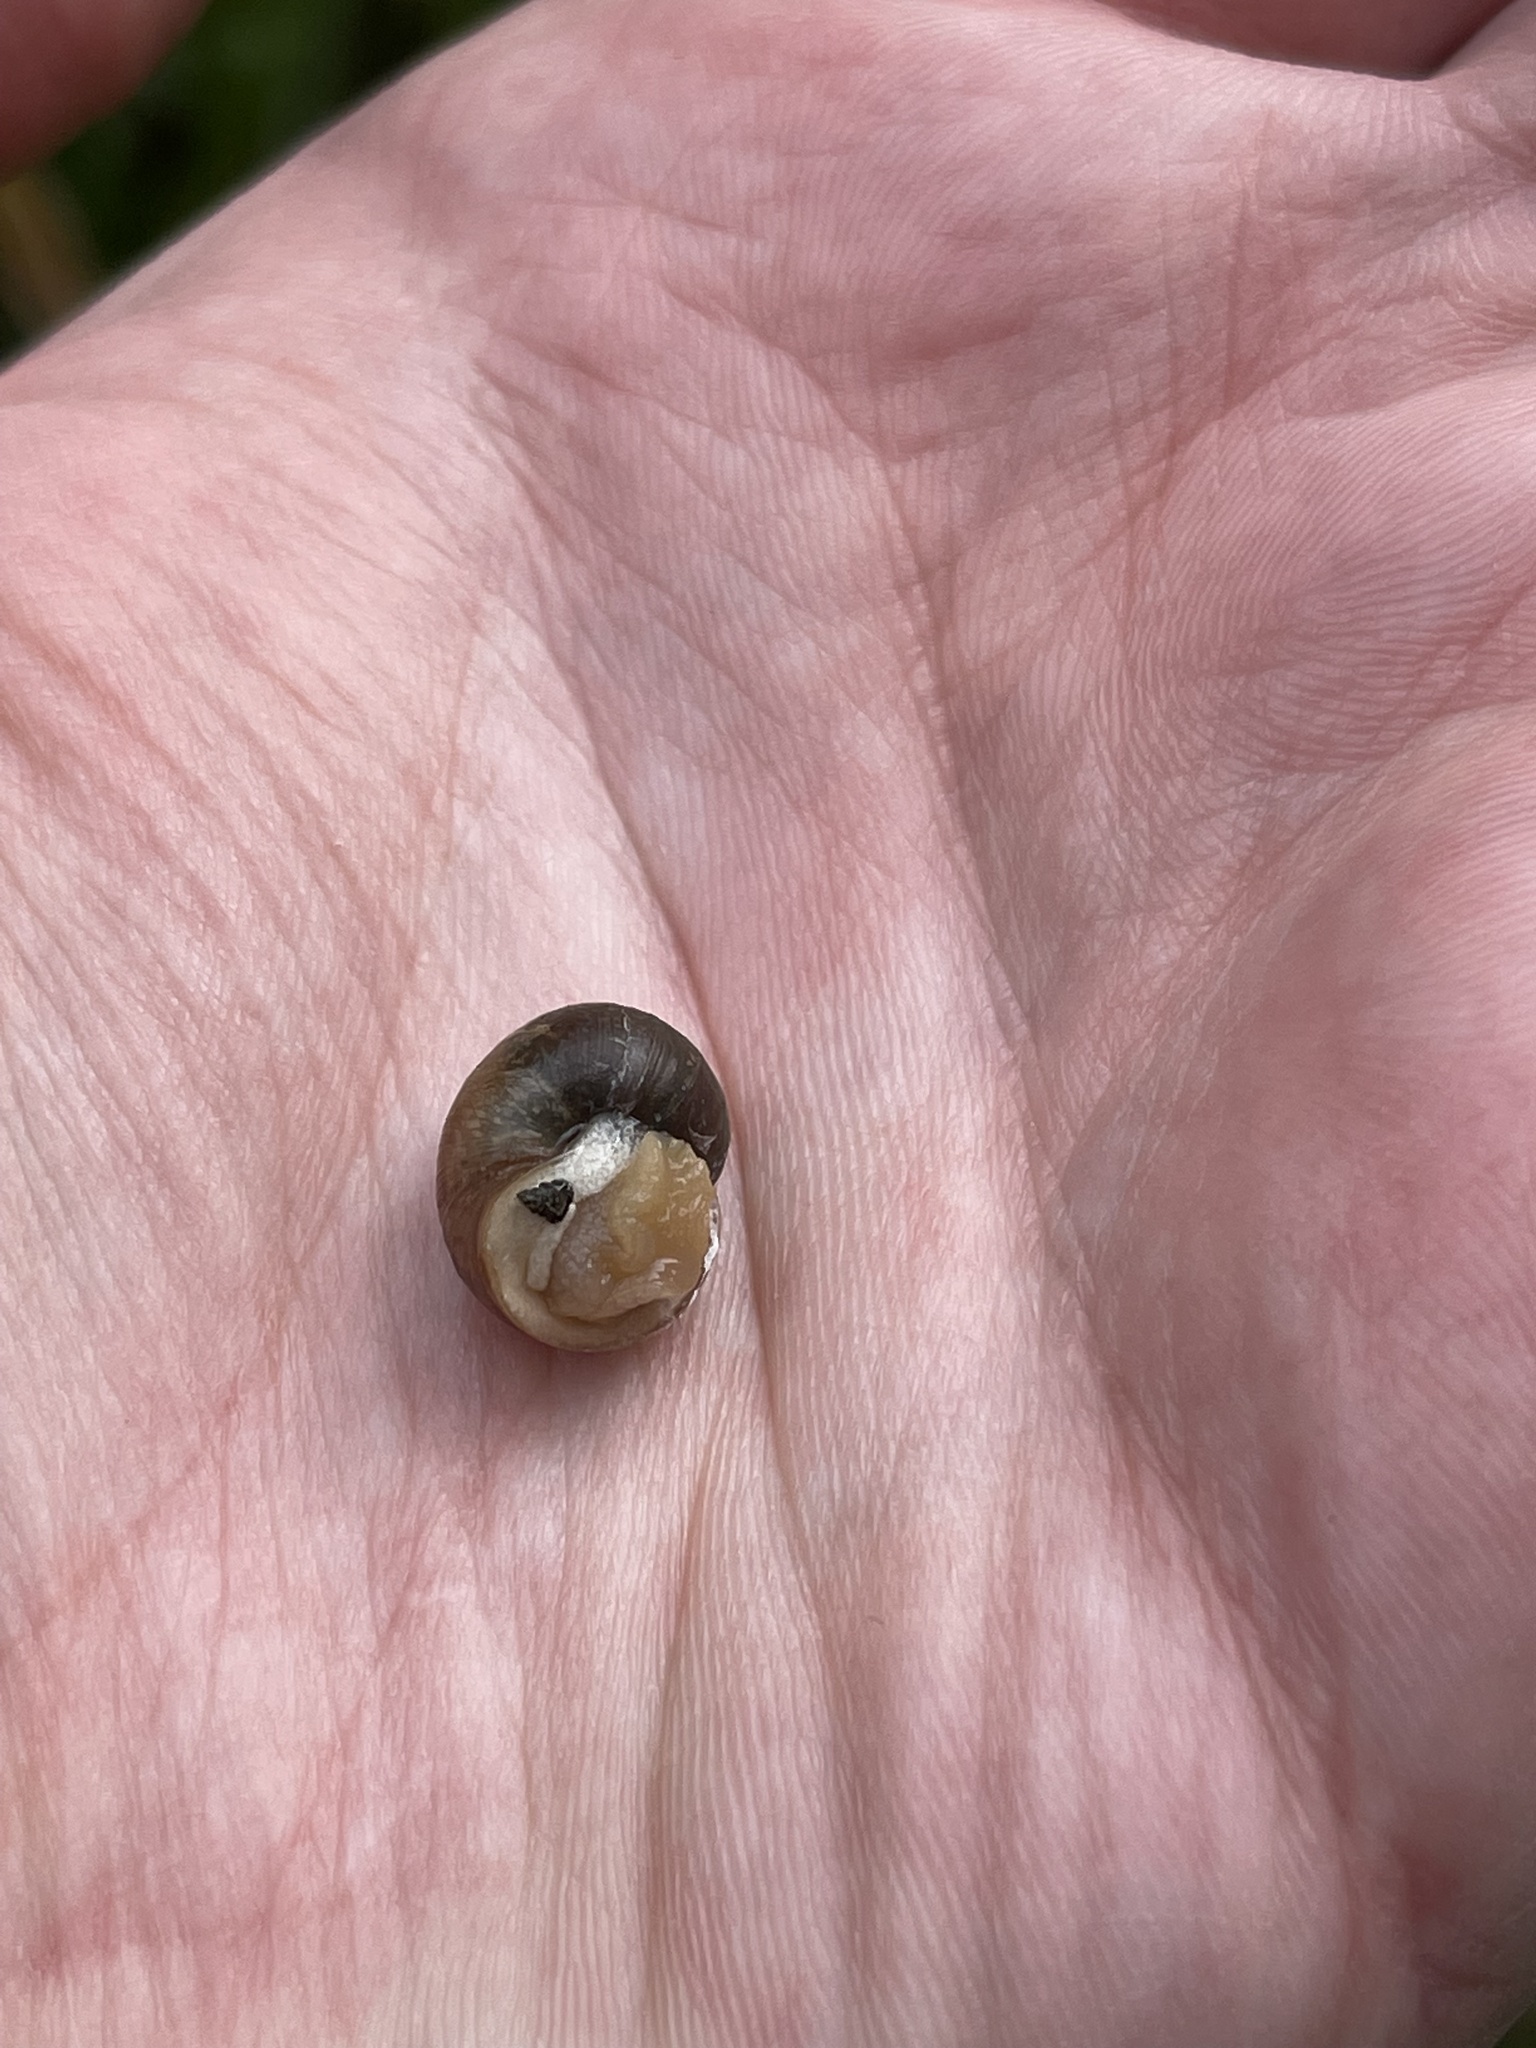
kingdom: Animalia
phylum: Mollusca
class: Gastropoda
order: Stylommatophora
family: Helicidae
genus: Helix
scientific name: Helix pomatia
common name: Roman snail
